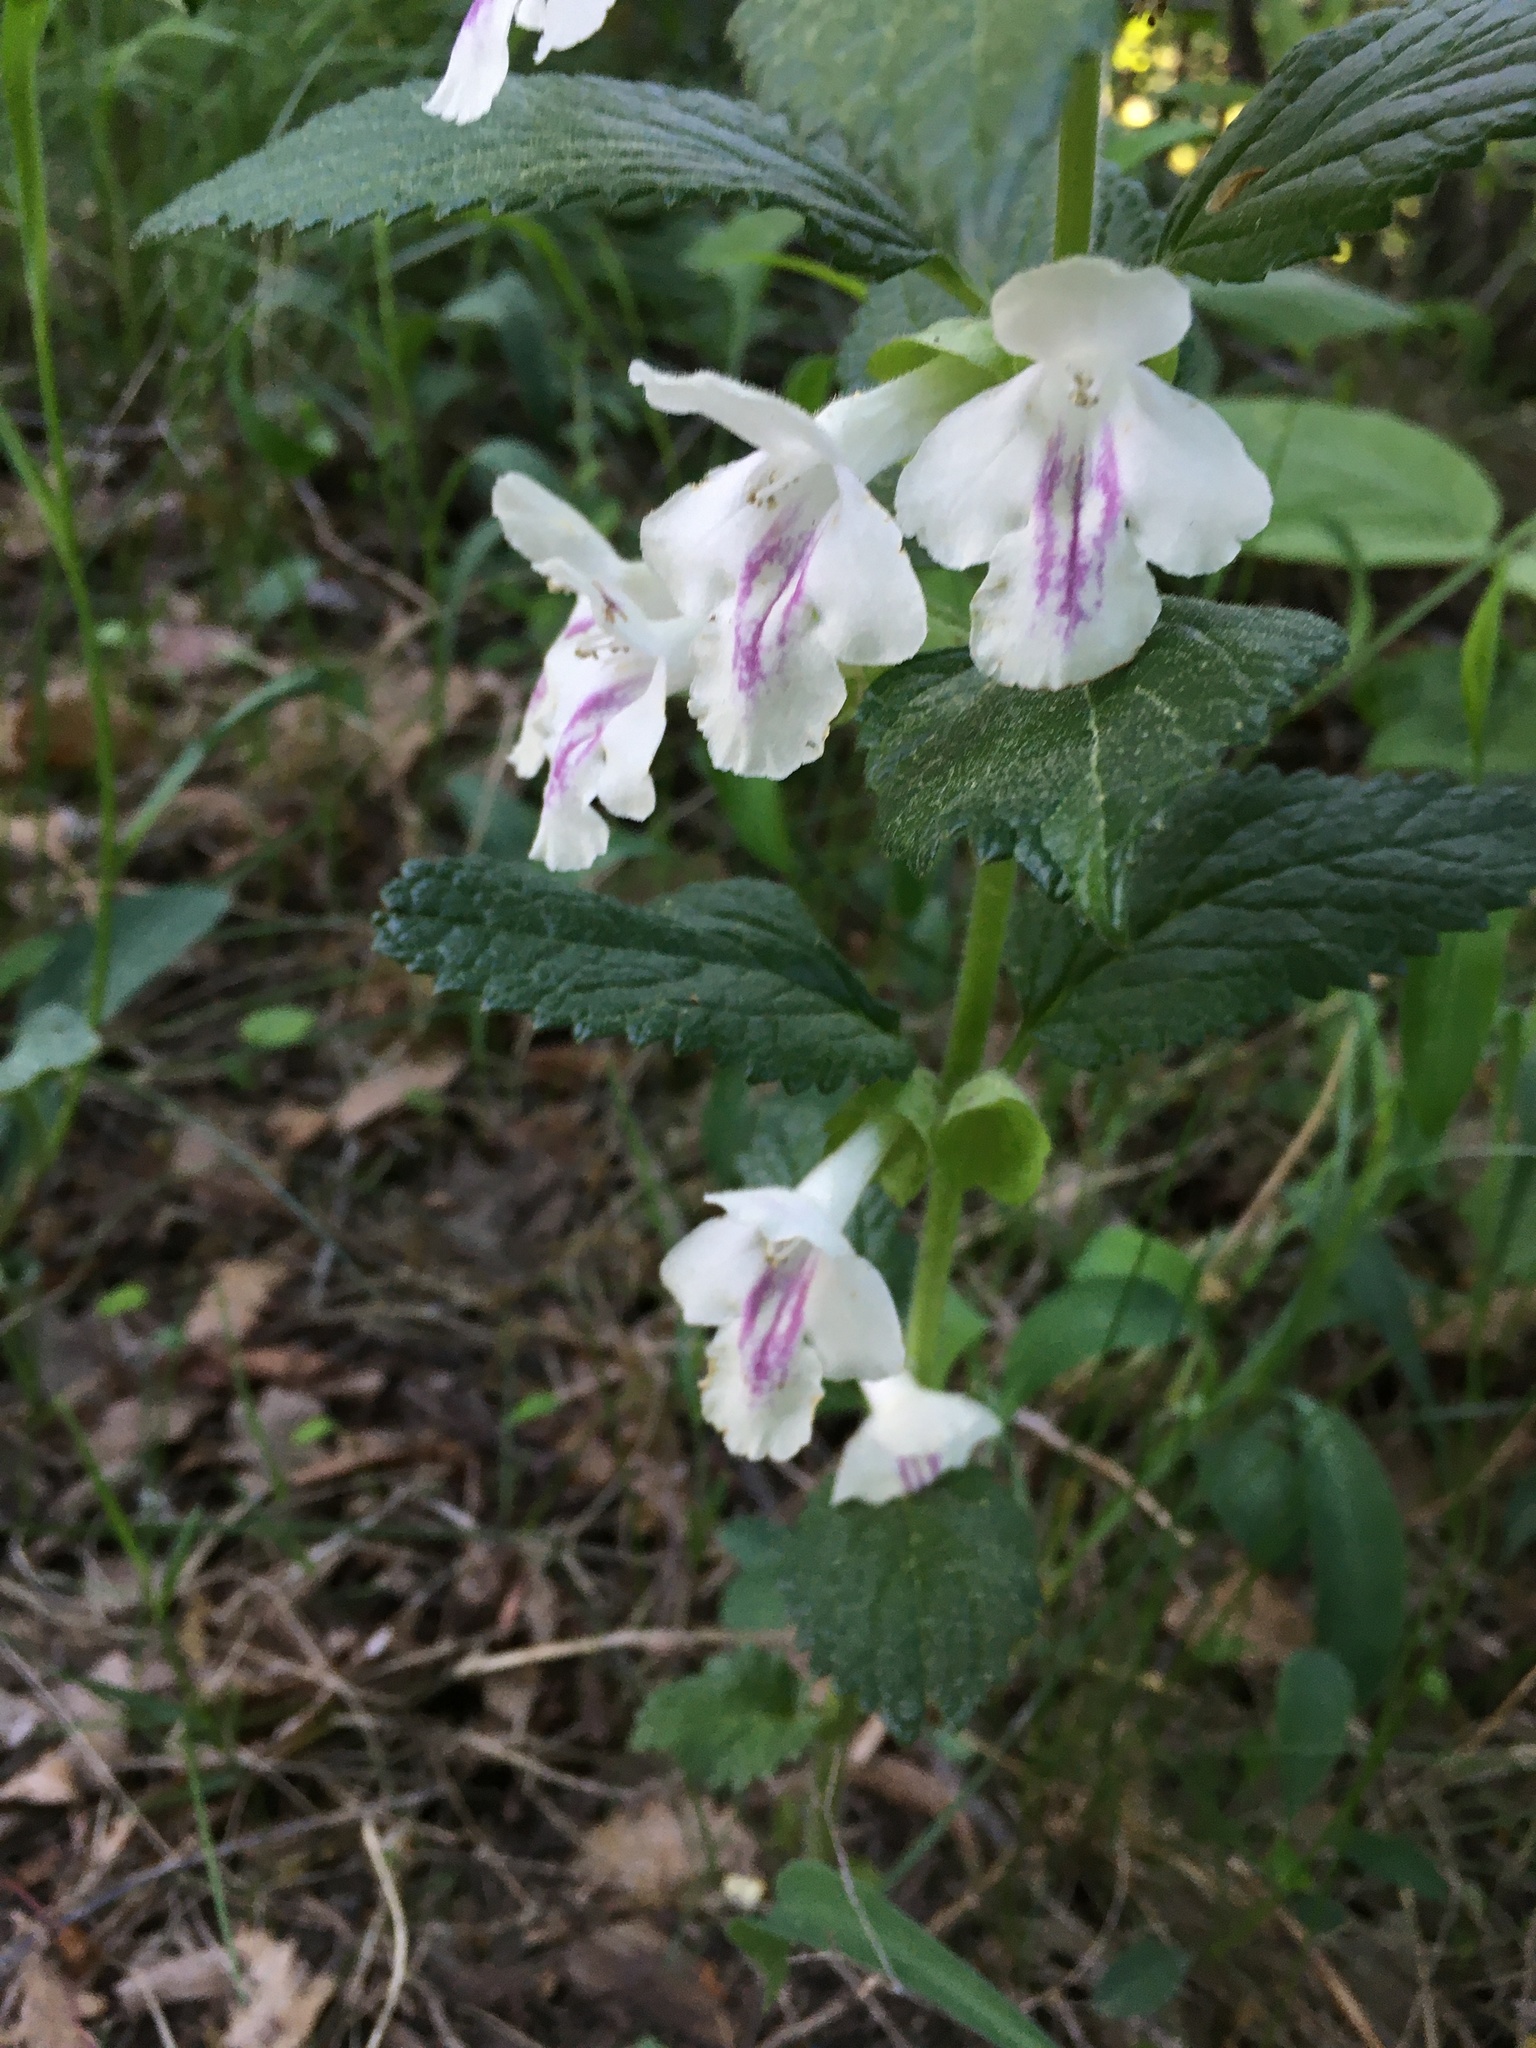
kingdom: Plantae
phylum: Tracheophyta
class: Magnoliopsida
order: Lamiales
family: Lamiaceae
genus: Melittis
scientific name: Melittis melissophyllum
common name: Bastard balm
